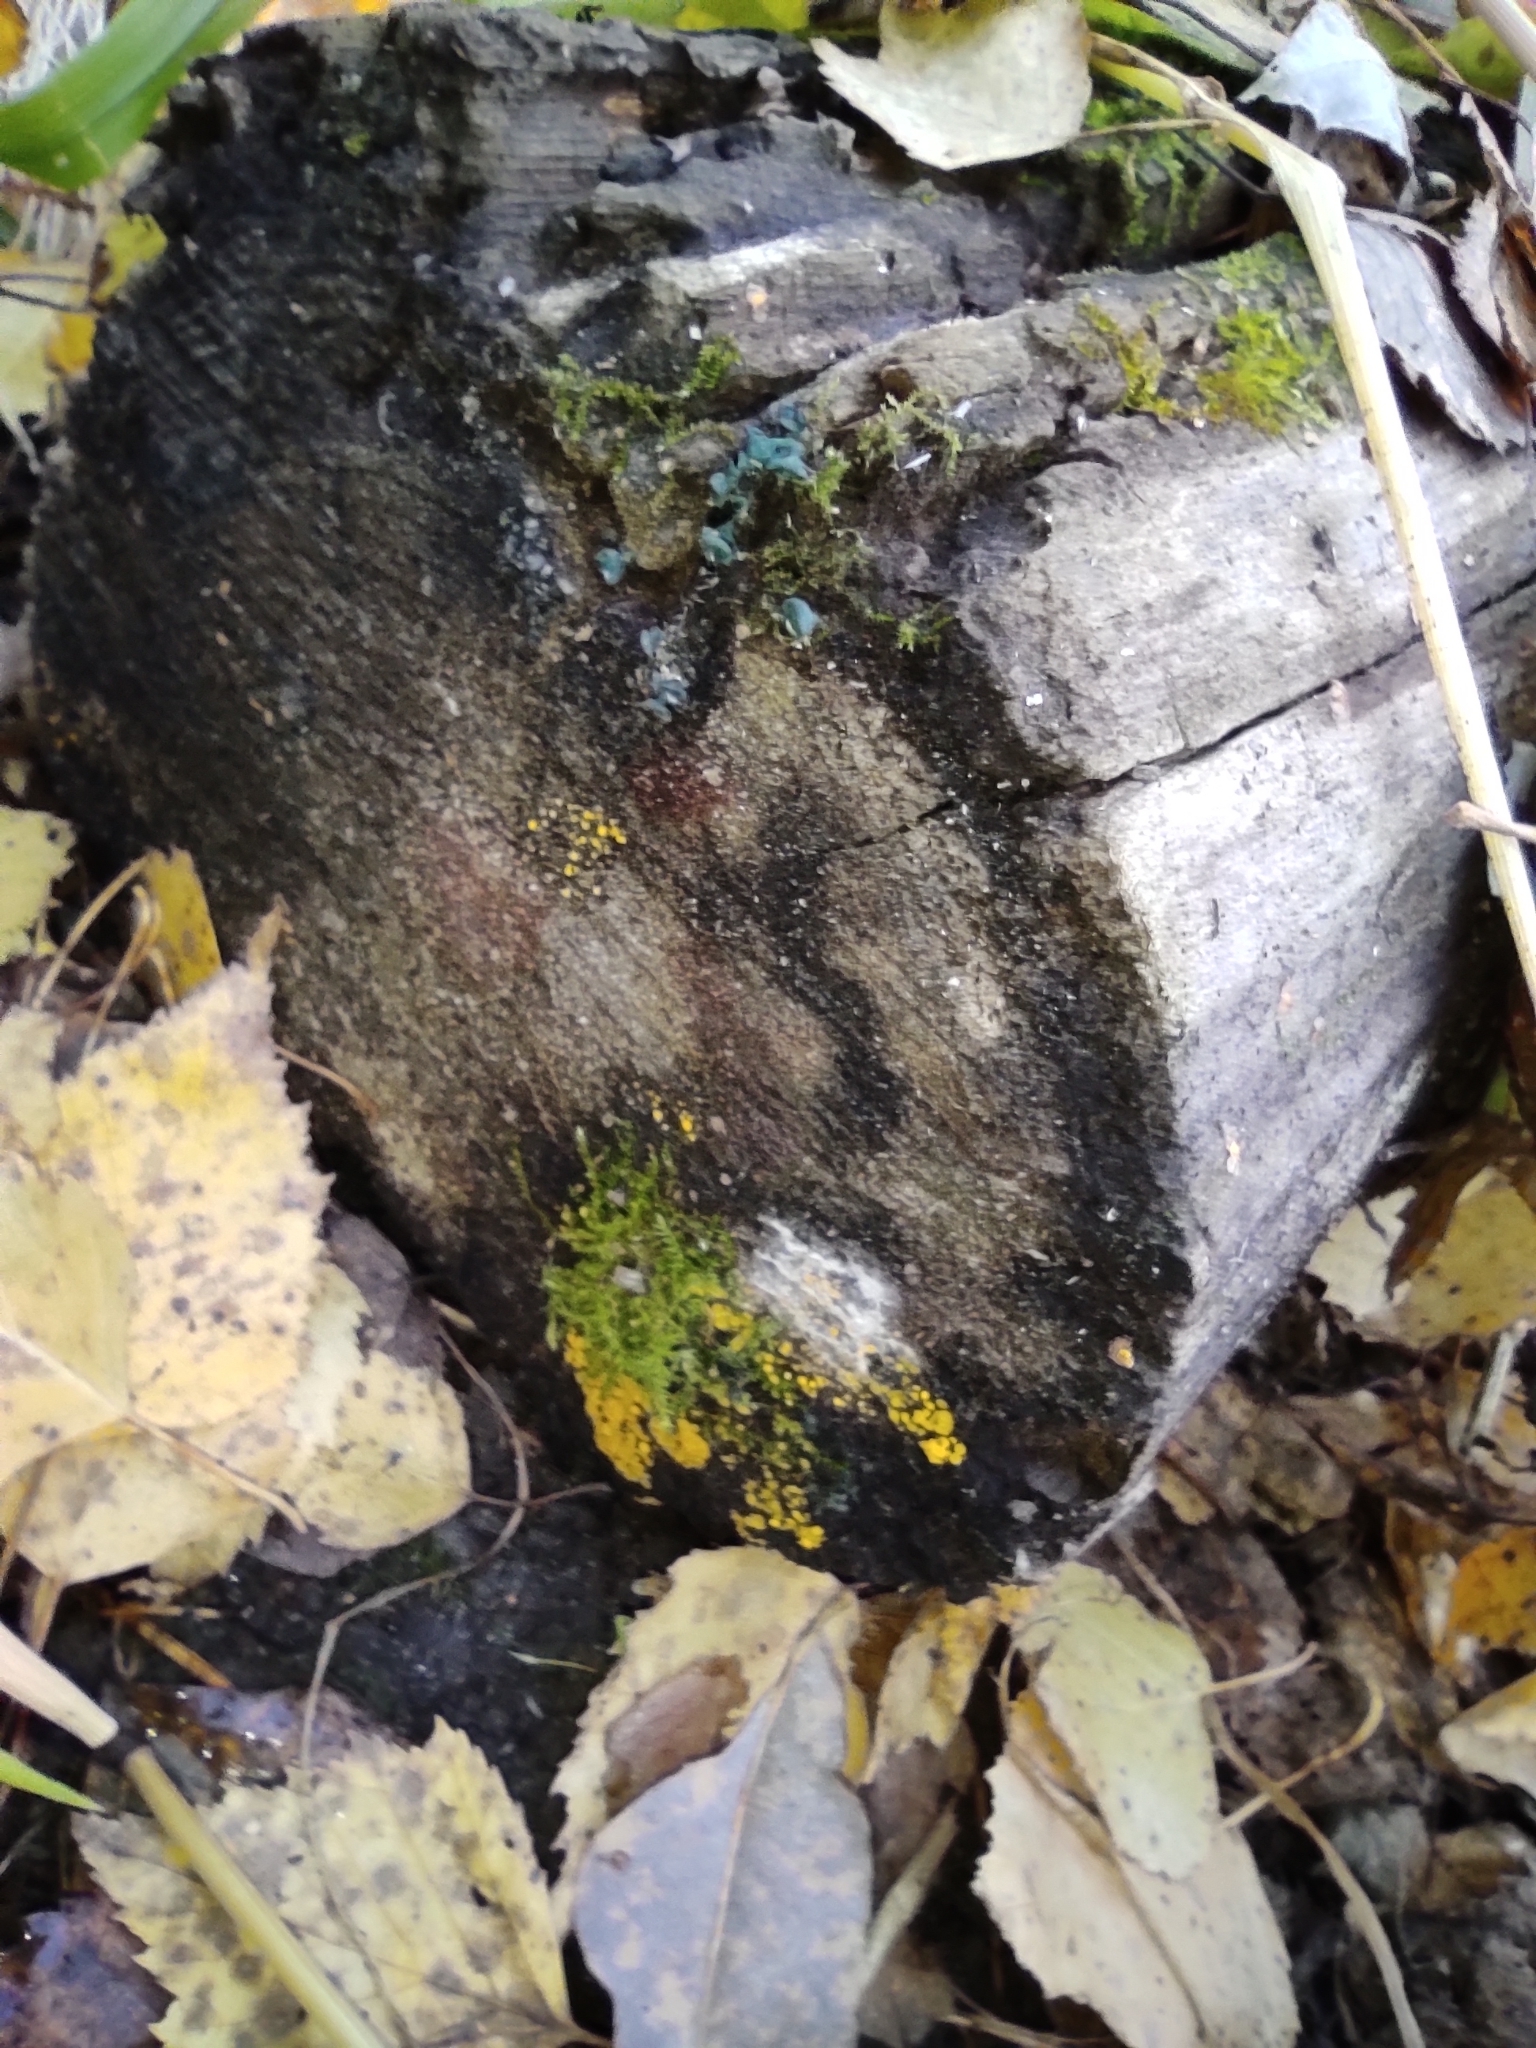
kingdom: Fungi
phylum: Ascomycota
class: Leotiomycetes
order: Helotiales
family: Chlorociboriaceae
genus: Chlorociboria
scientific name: Chlorociboria aeruginascens
